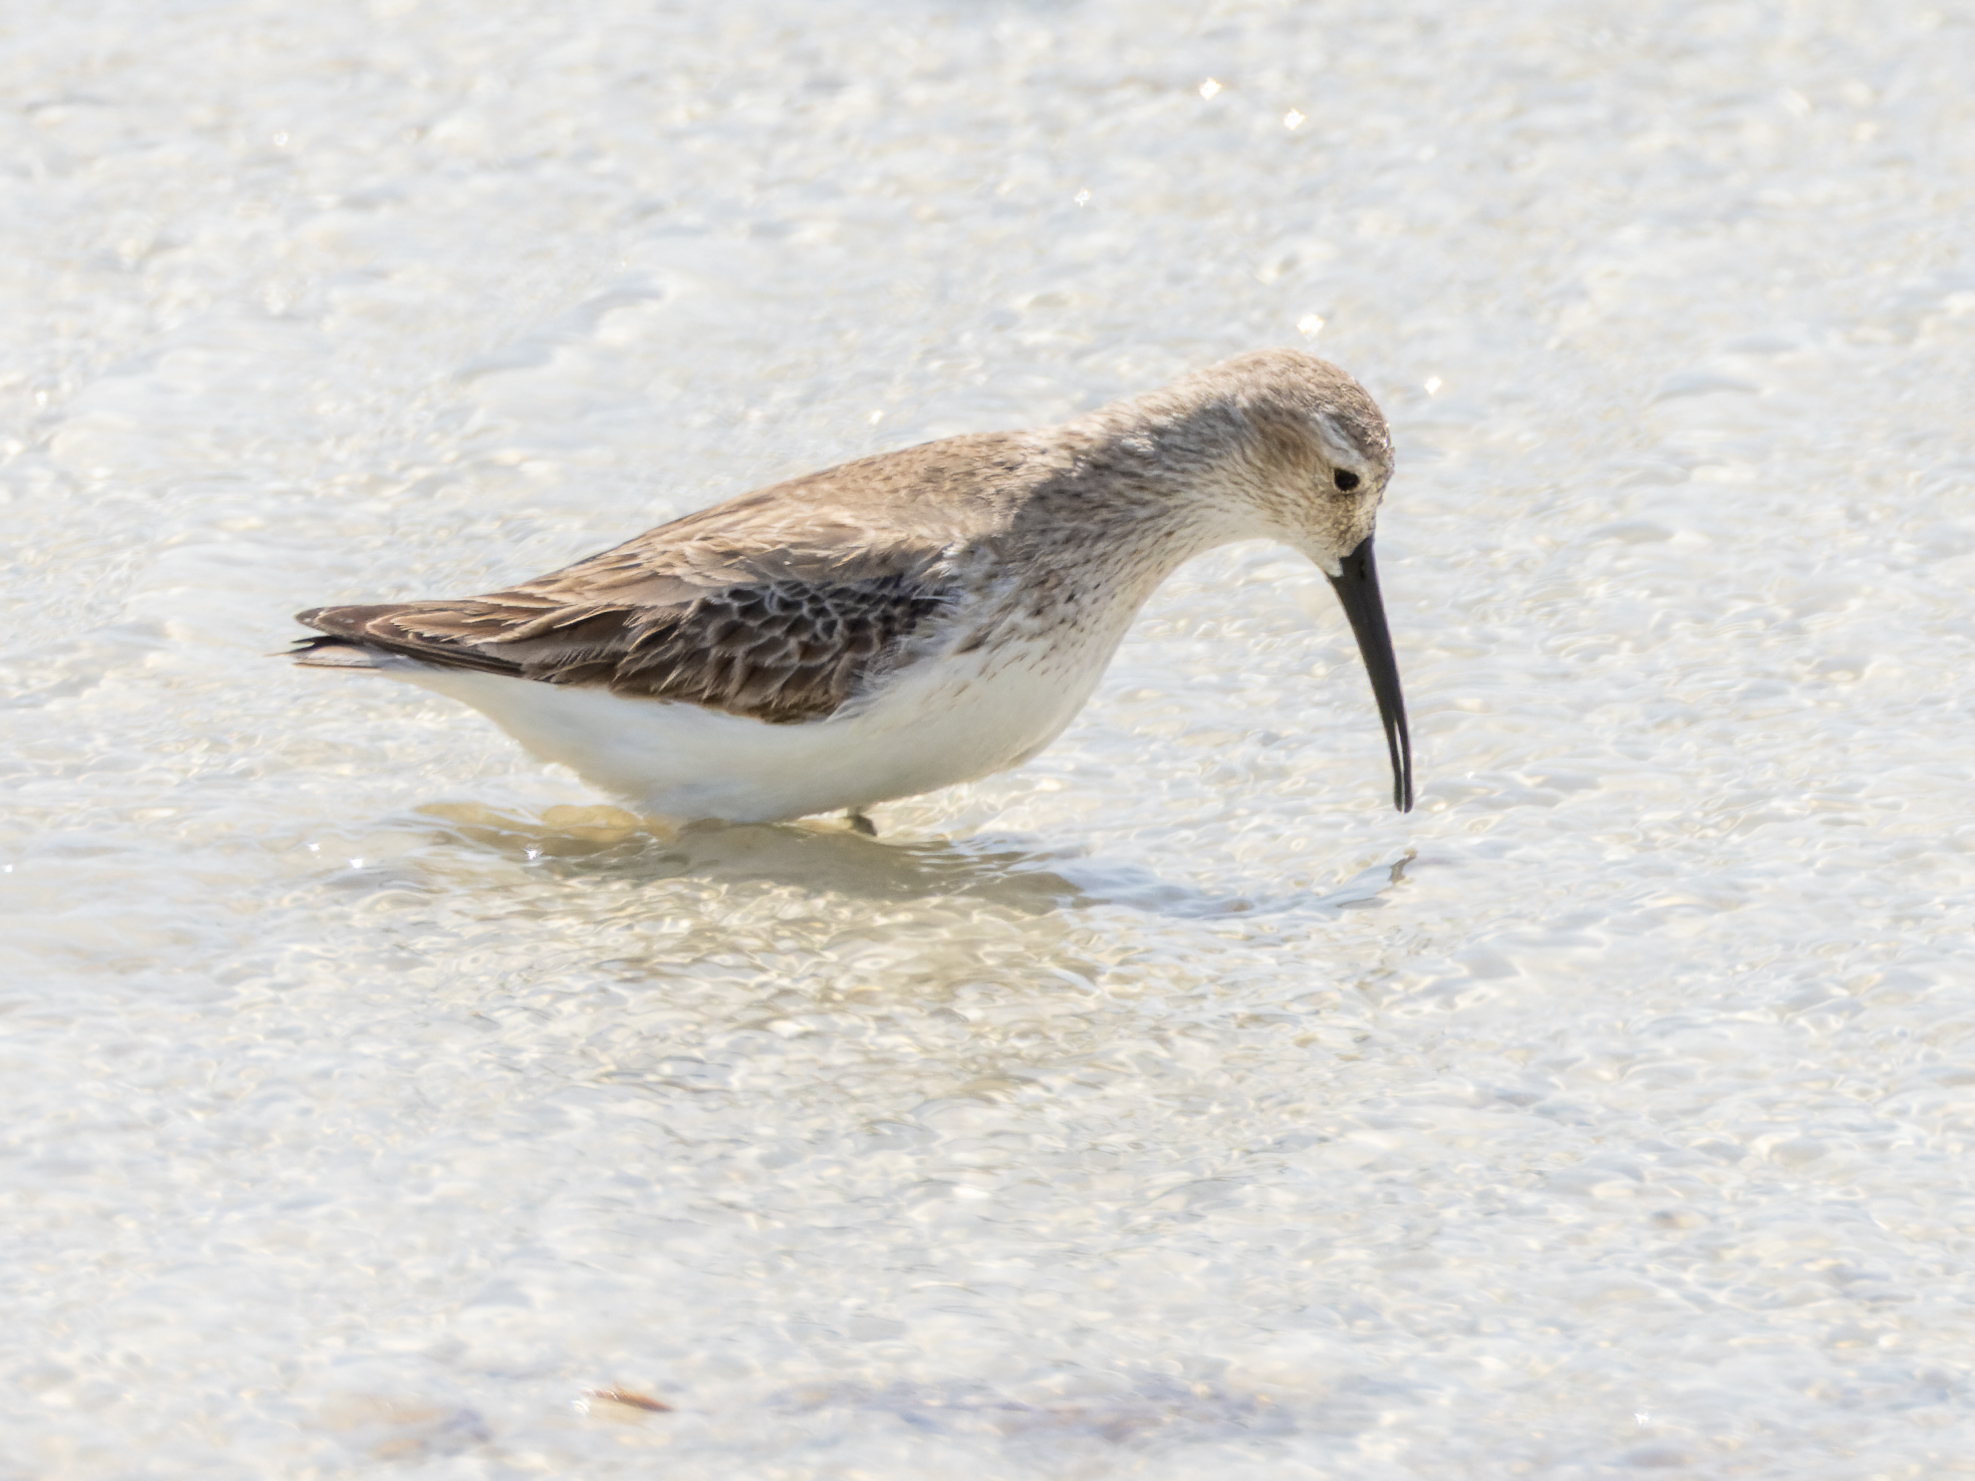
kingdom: Animalia
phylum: Chordata
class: Aves
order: Charadriiformes
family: Scolopacidae
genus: Calidris
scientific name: Calidris ferruginea
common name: Curlew sandpiper
